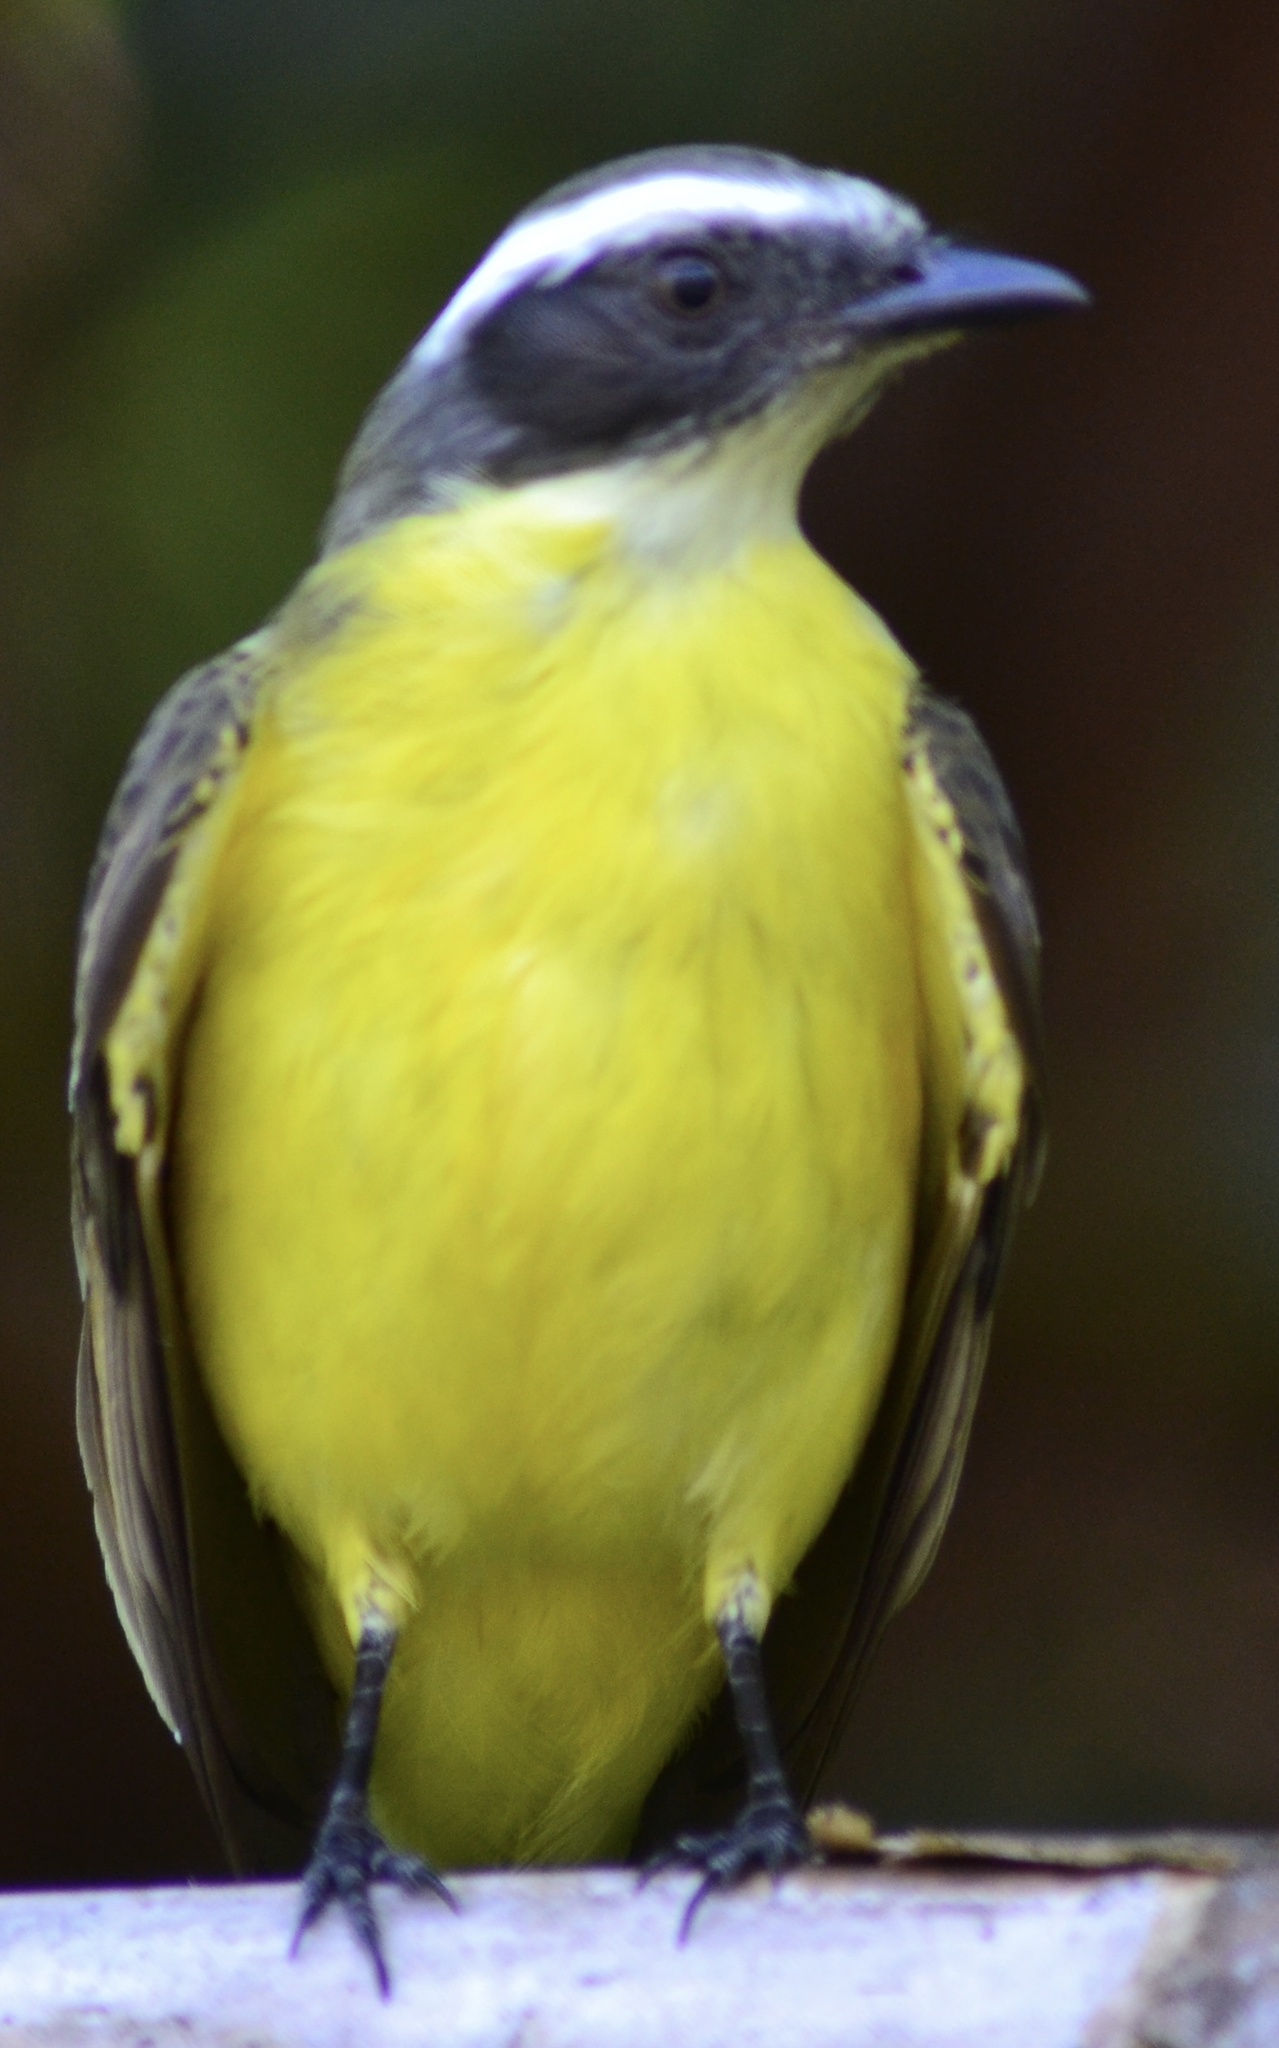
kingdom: Animalia
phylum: Chordata
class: Aves
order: Passeriformes
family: Tyrannidae
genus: Myiozetetes
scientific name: Myiozetetes similis
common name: Social flycatcher
